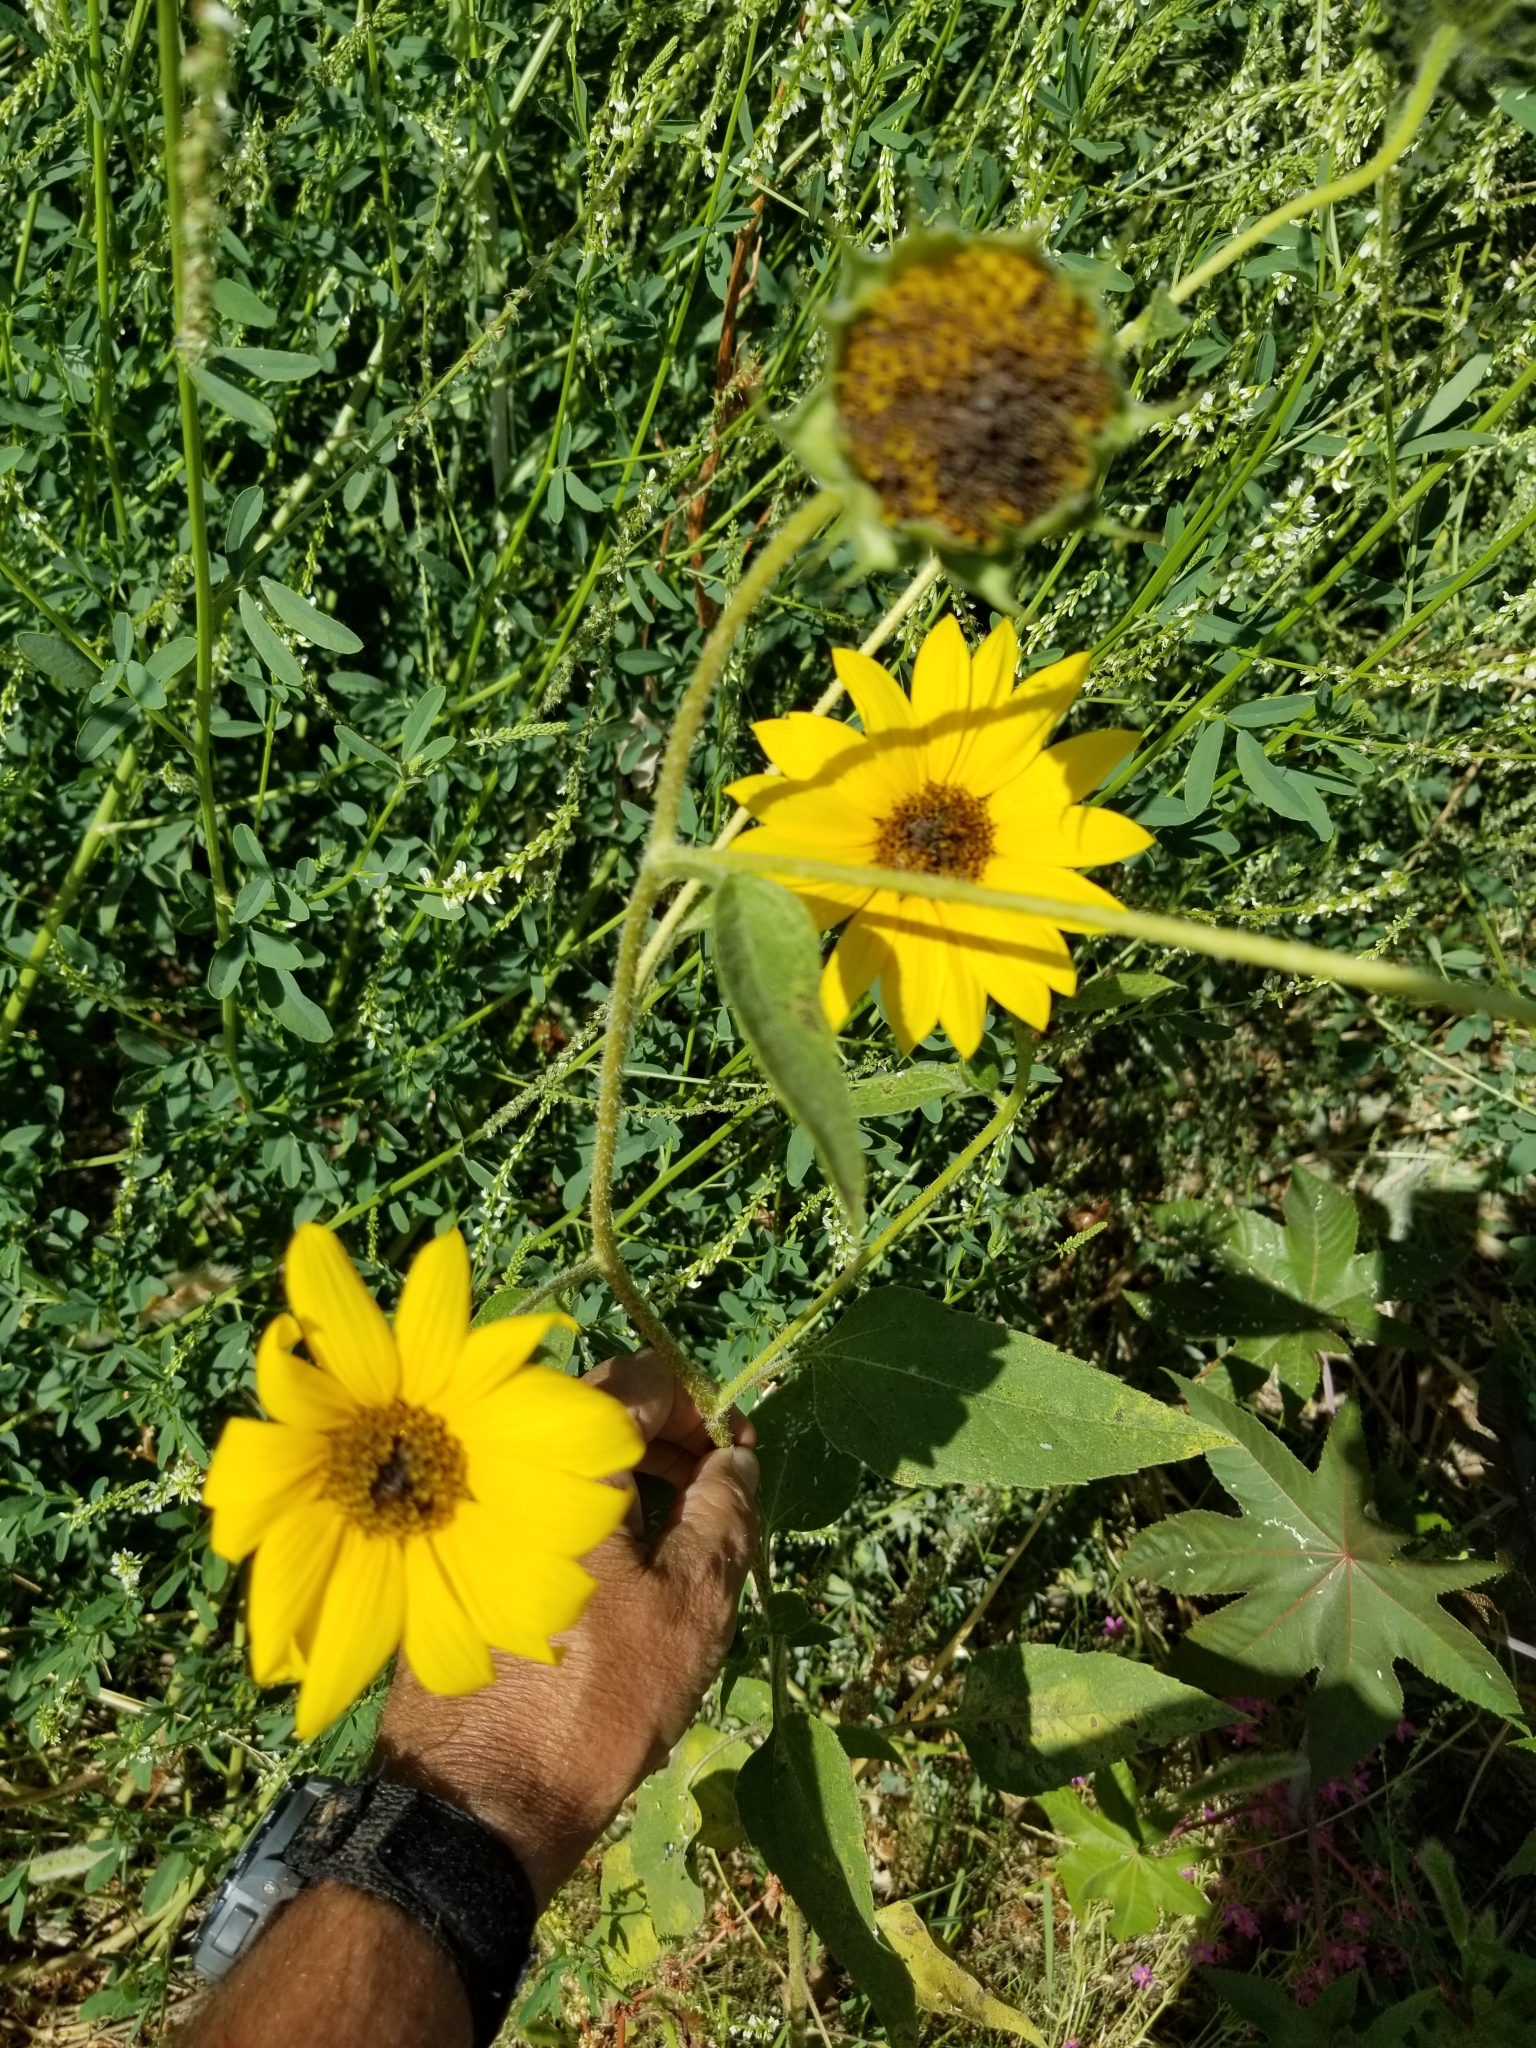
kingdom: Plantae
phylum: Tracheophyta
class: Magnoliopsida
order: Asterales
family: Asteraceae
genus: Helianthus
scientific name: Helianthus annuus
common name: Sunflower
